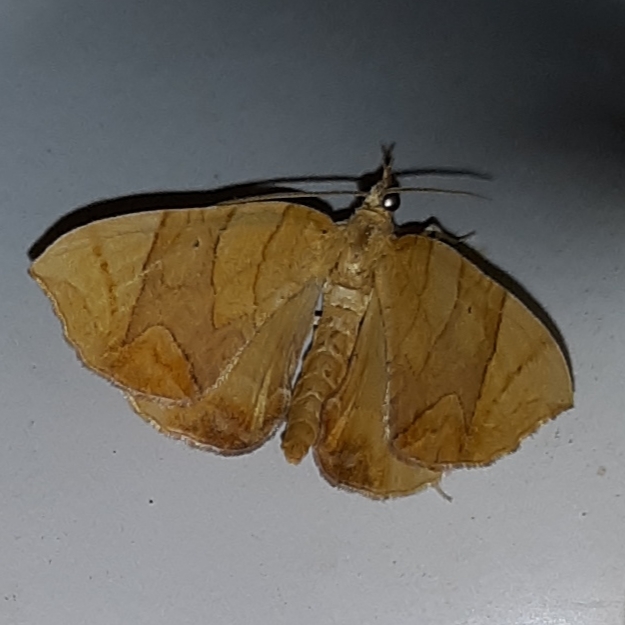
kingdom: Animalia
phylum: Arthropoda
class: Insecta
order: Lepidoptera
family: Geometridae
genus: Eulithis
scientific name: Eulithis
